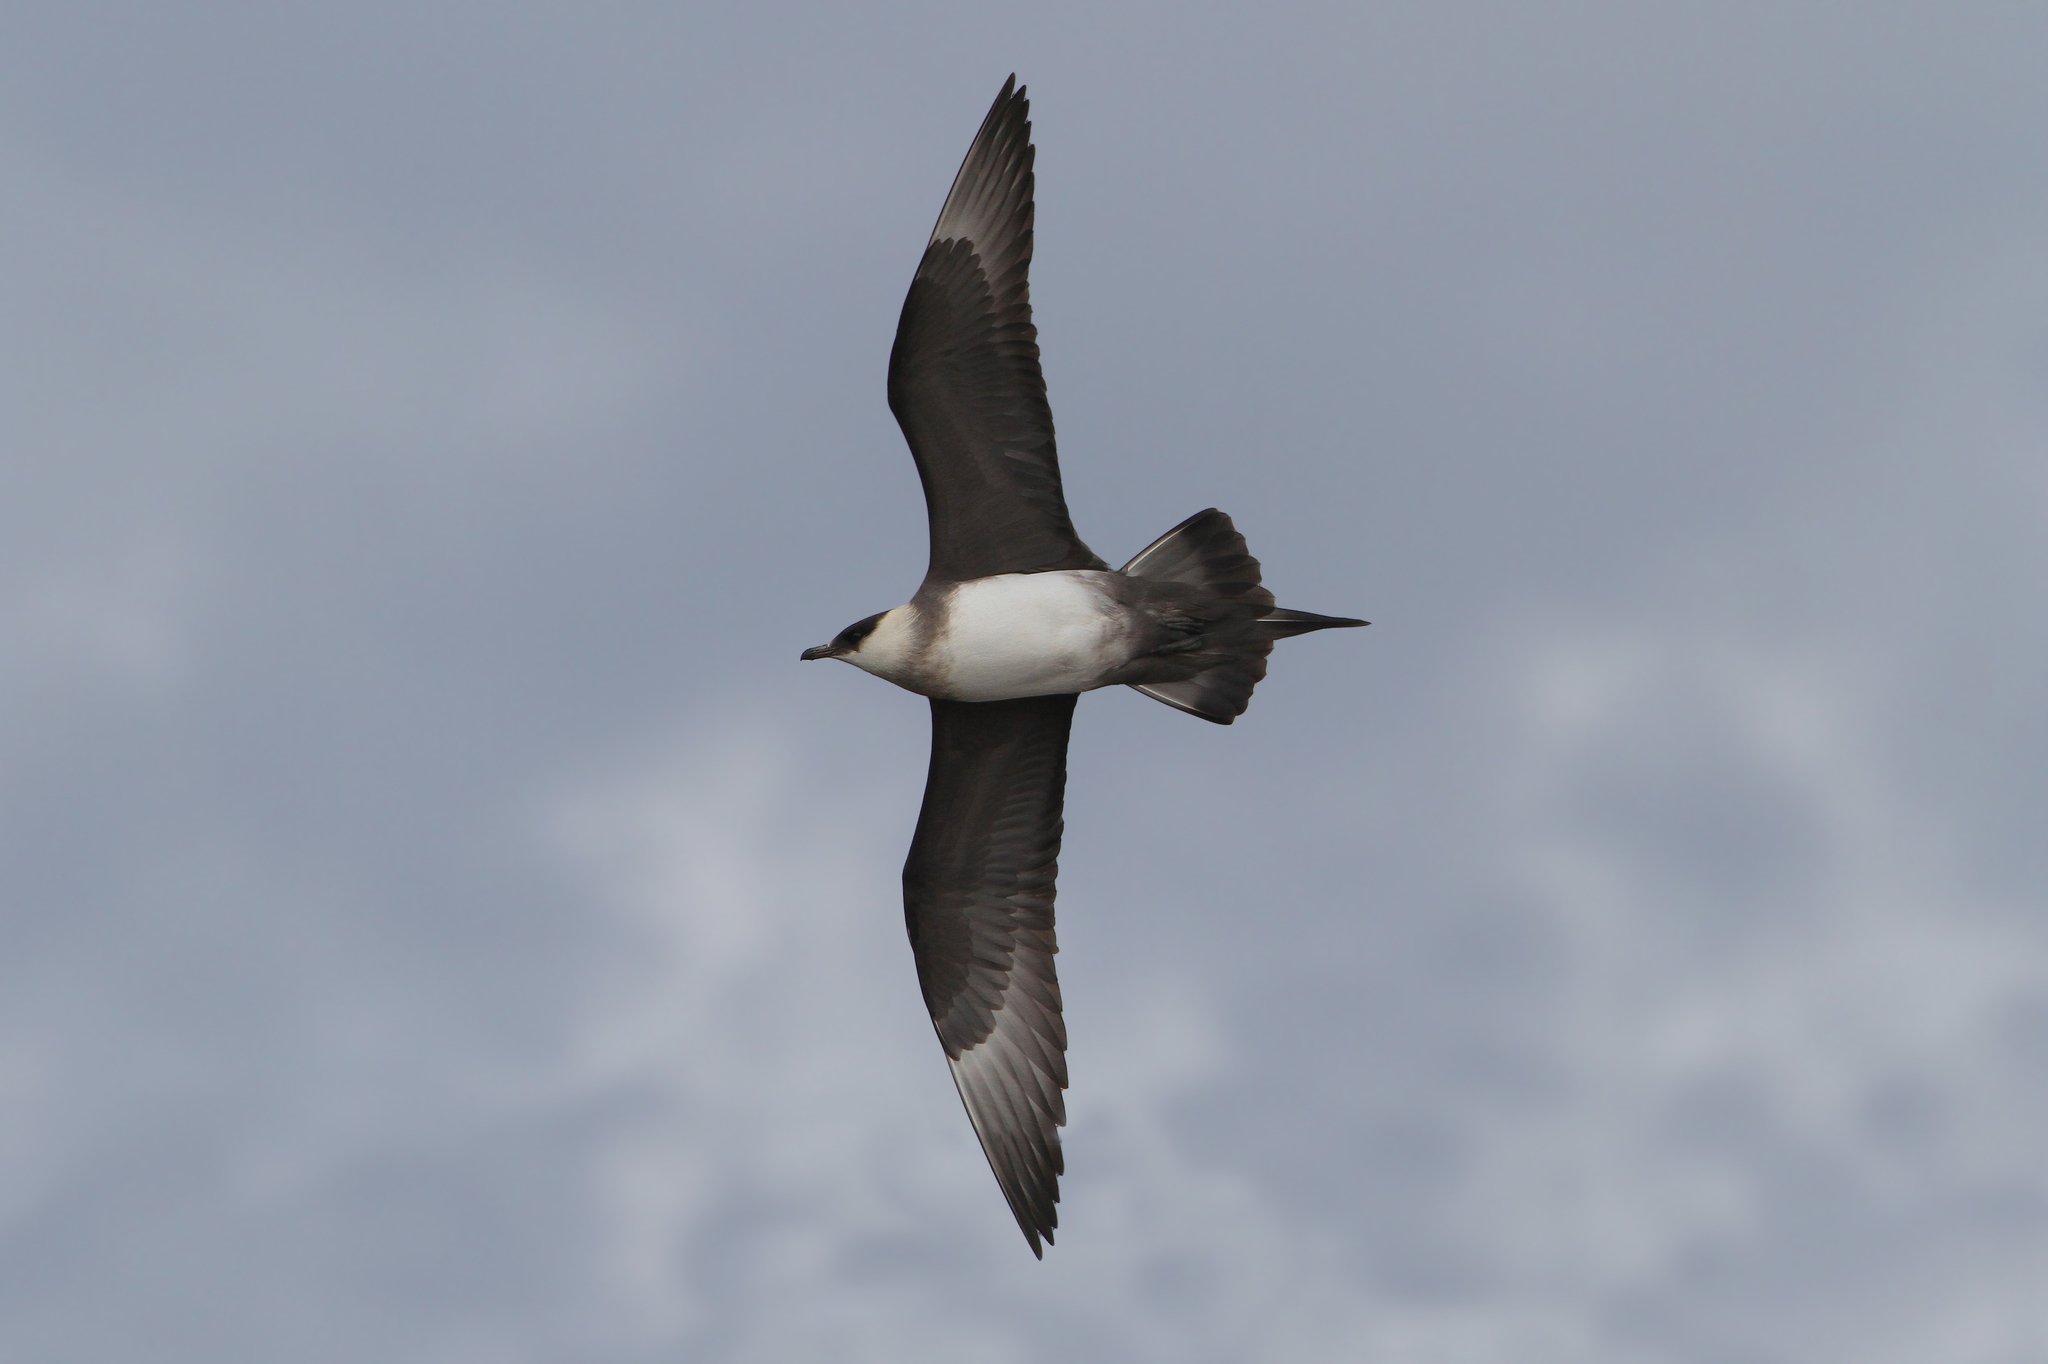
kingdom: Animalia
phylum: Chordata
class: Aves
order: Charadriiformes
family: Stercorariidae
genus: Stercorarius
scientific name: Stercorarius parasiticus
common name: Parasitic jaeger
